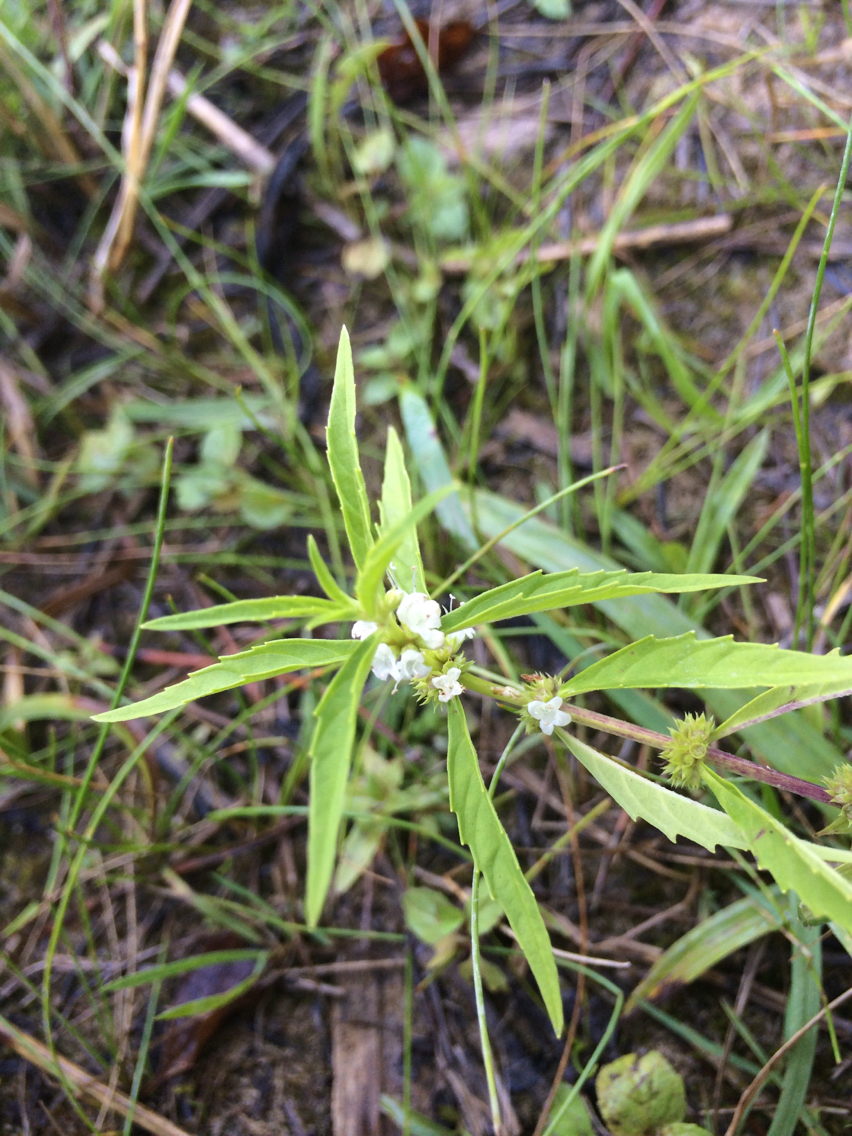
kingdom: Plantae
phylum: Tracheophyta
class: Magnoliopsida
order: Lamiales
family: Lamiaceae
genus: Lycopus
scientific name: Lycopus uniflorus
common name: Northern bugleweed
